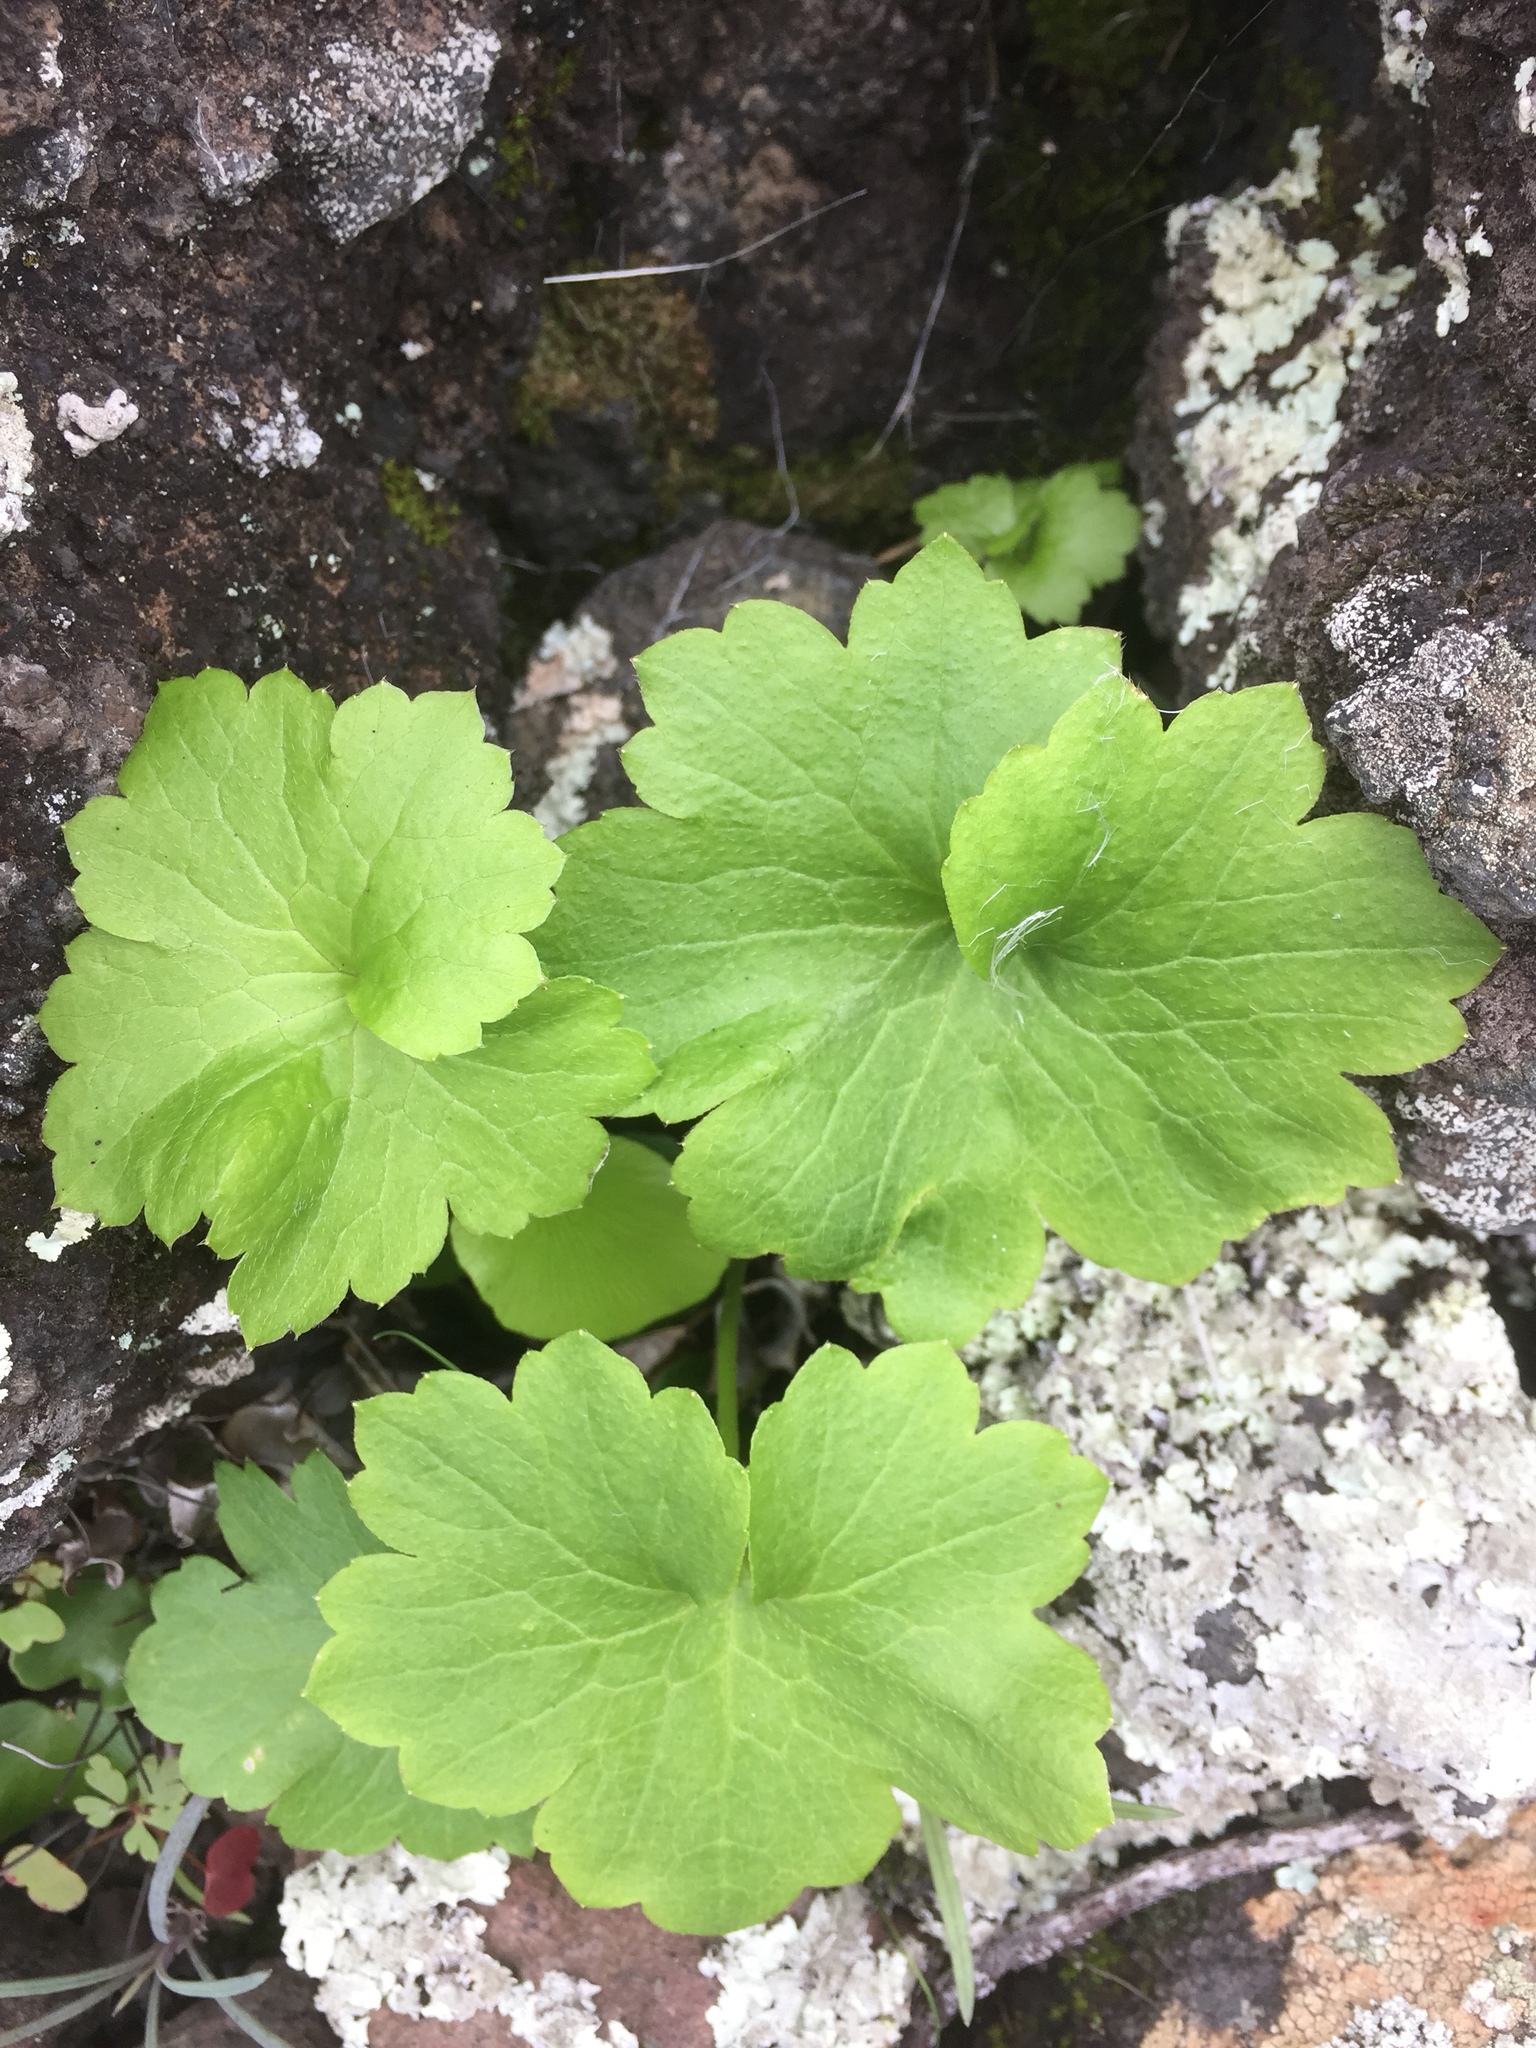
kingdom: Plantae
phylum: Tracheophyta
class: Magnoliopsida
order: Ranunculales
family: Ranunculaceae
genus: Ranunculus
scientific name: Ranunculus cortusifolius
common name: Azores buttercup
